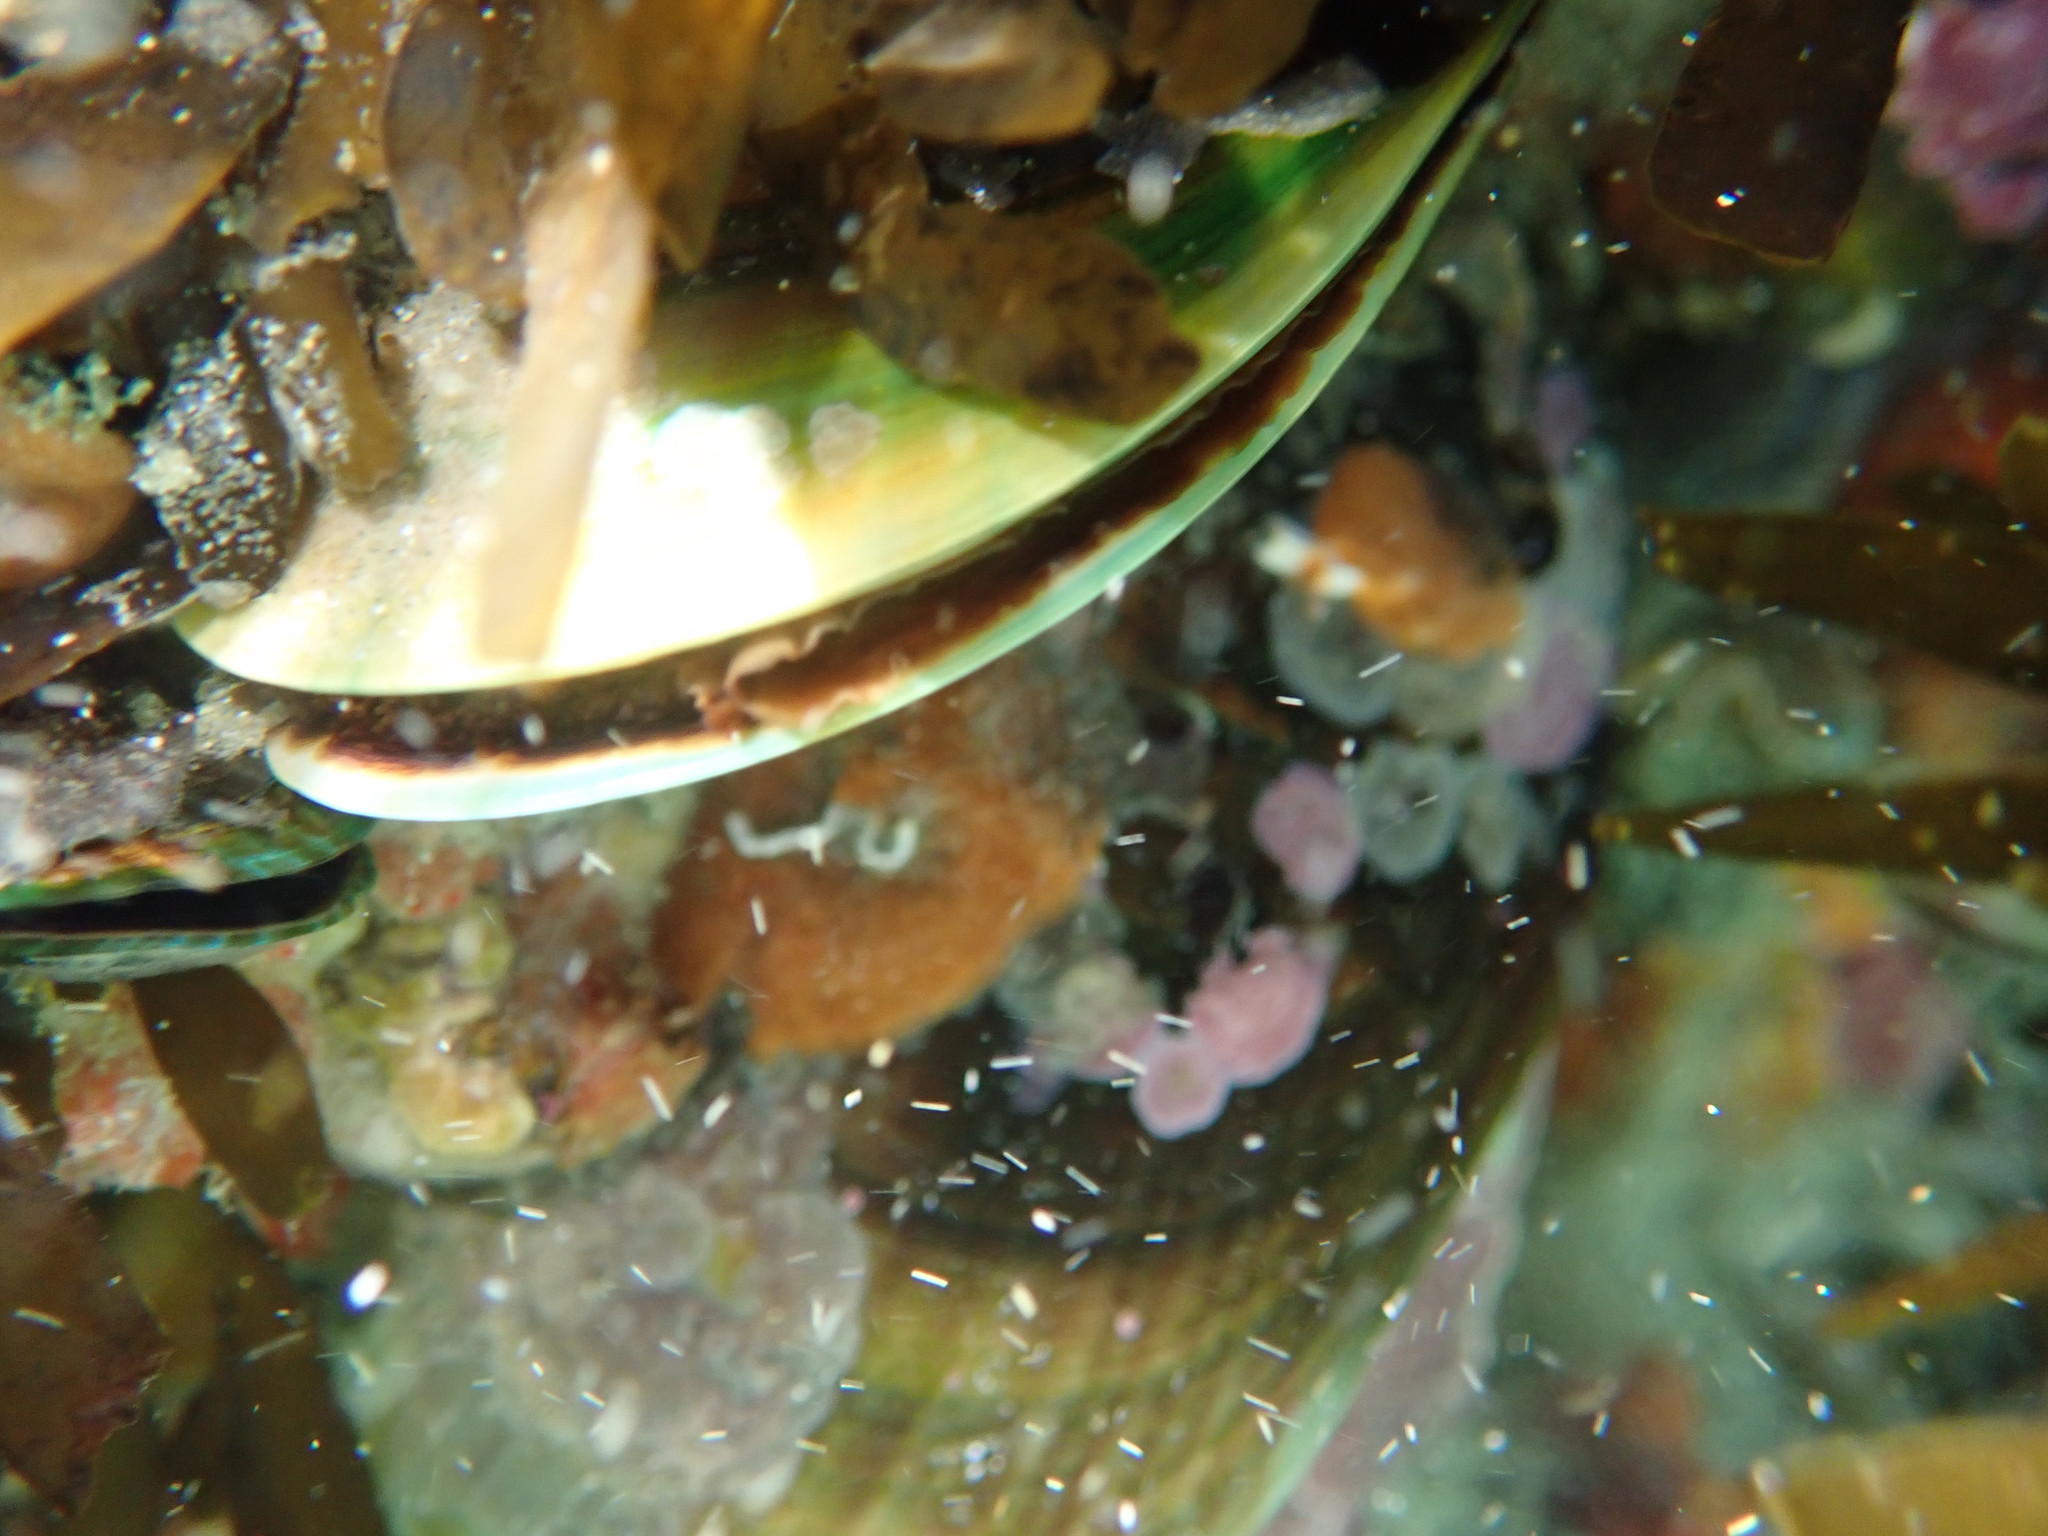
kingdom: Animalia
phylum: Mollusca
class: Bivalvia
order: Mytilida
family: Mytilidae
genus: Perna
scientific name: Perna canaliculus
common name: New zealand greenshelltm
